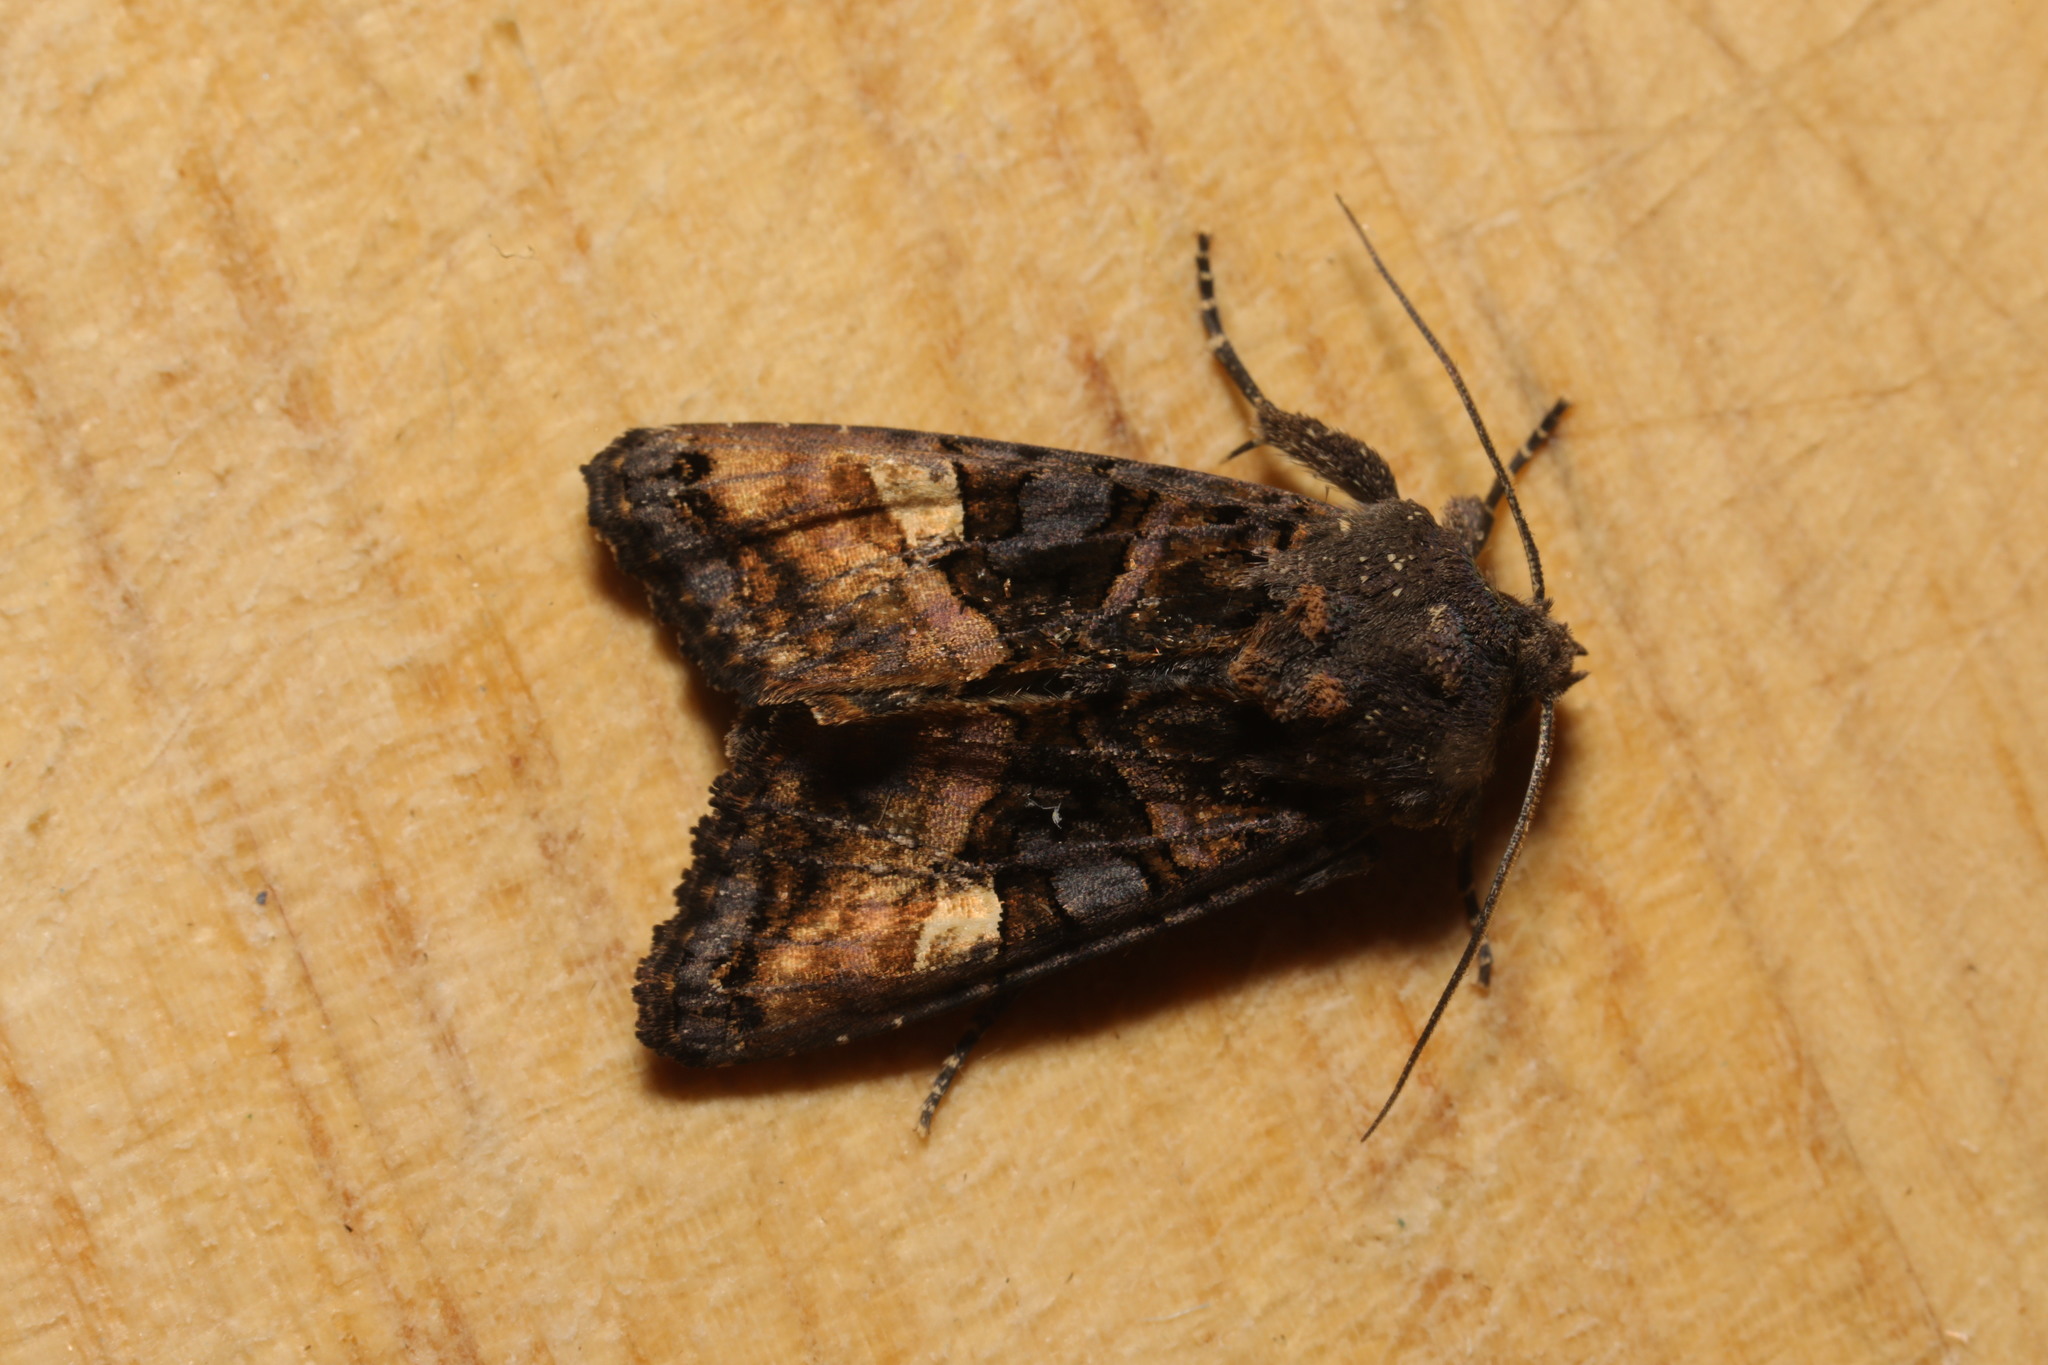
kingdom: Animalia
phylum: Arthropoda
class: Insecta
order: Lepidoptera
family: Noctuidae
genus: Euplexia
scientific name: Euplexia lucipara
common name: Small angle shades
